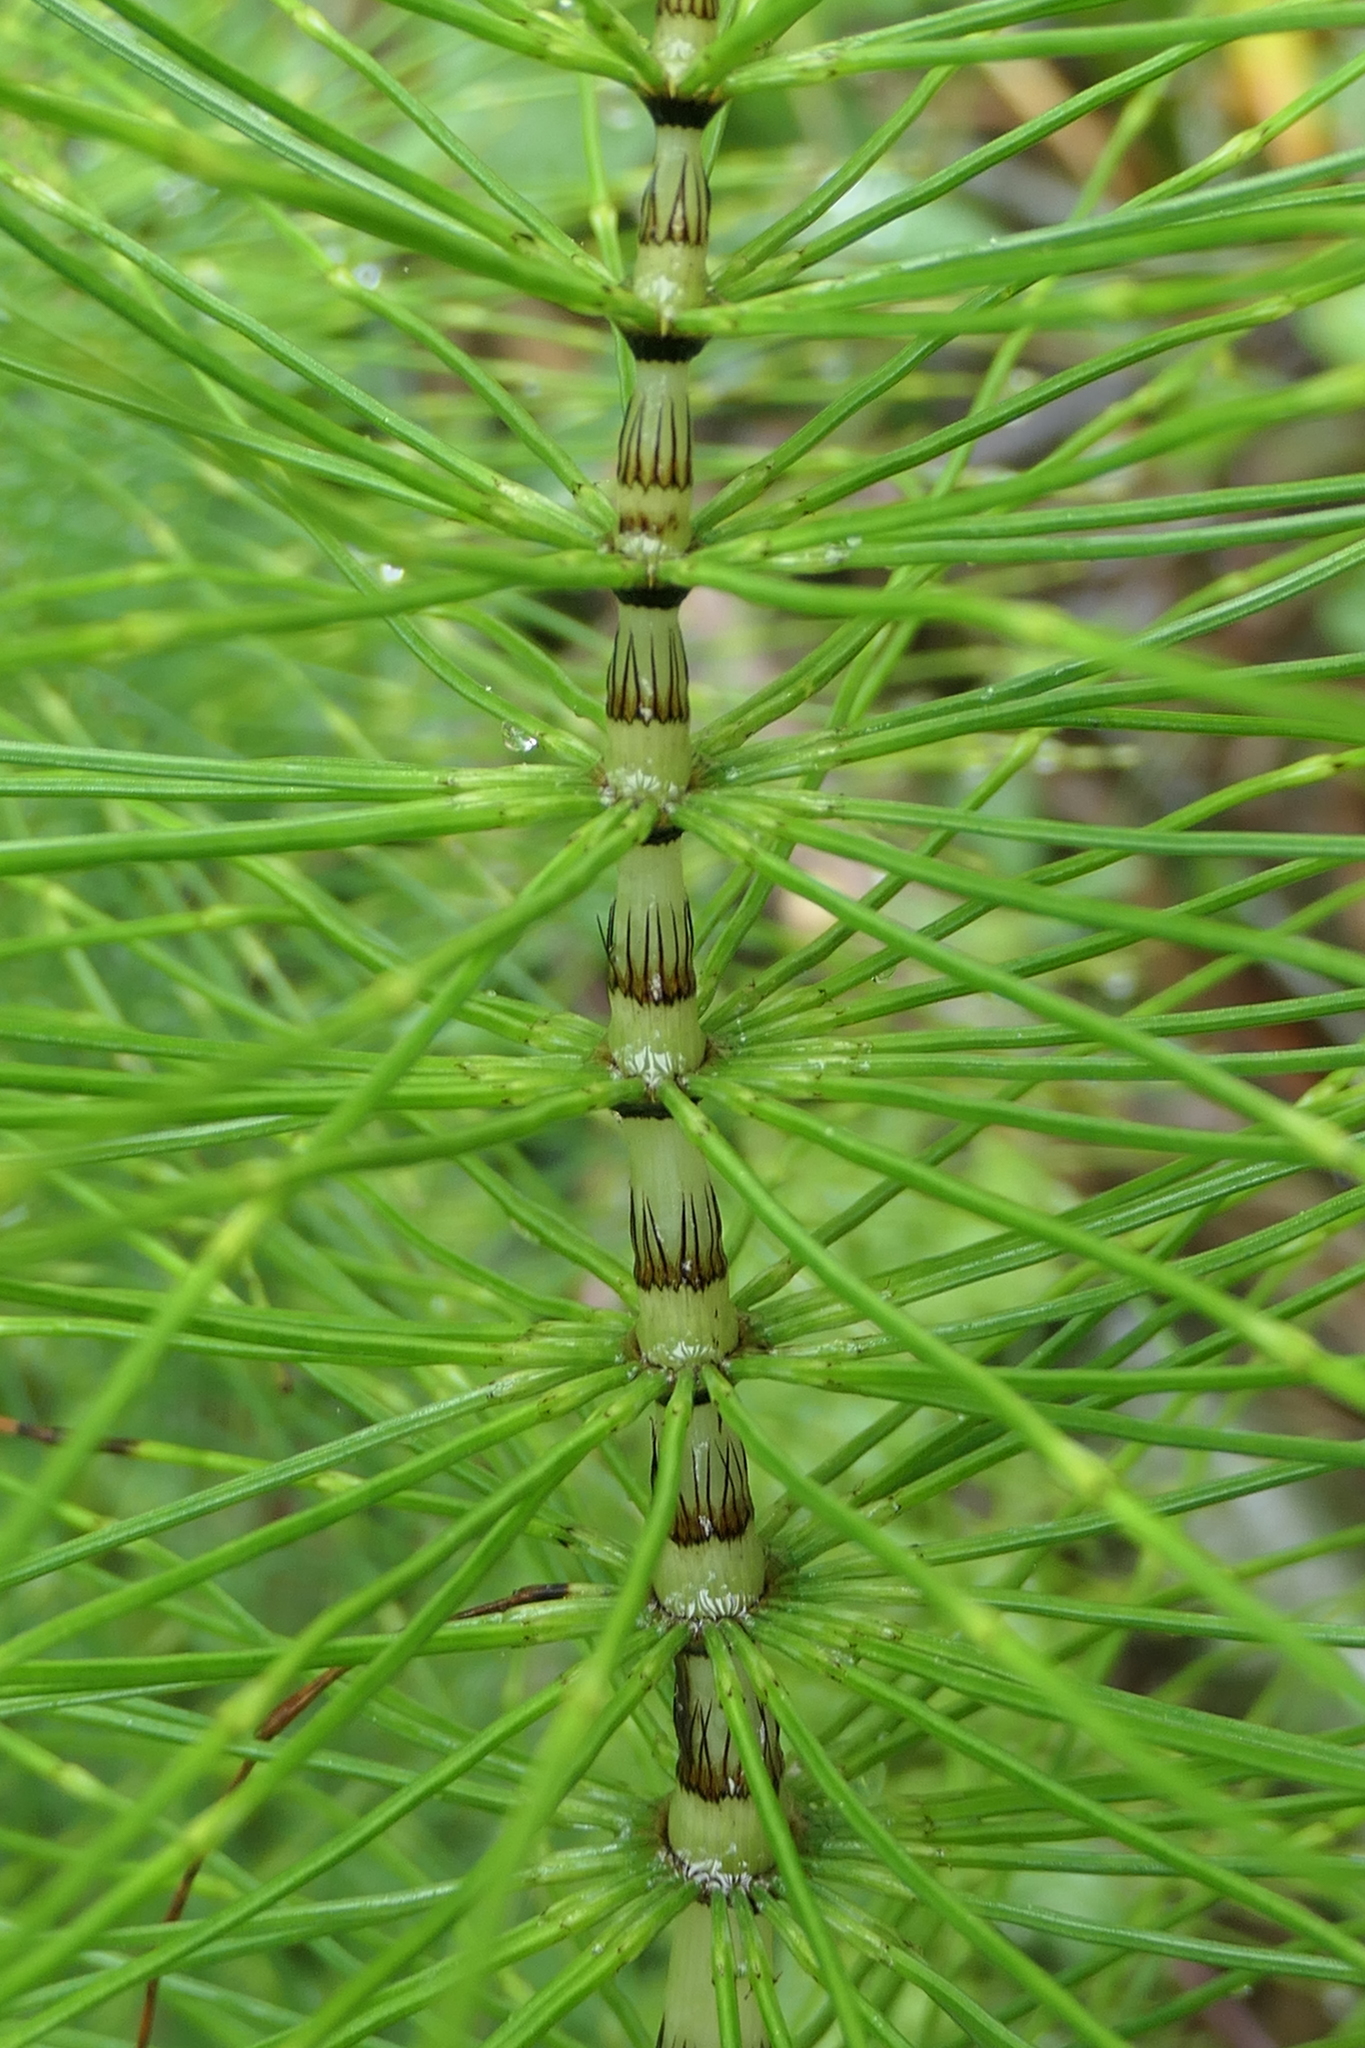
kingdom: Plantae
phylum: Tracheophyta
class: Polypodiopsida
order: Equisetales
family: Equisetaceae
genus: Equisetum
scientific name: Equisetum telmateia
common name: Great horsetail
